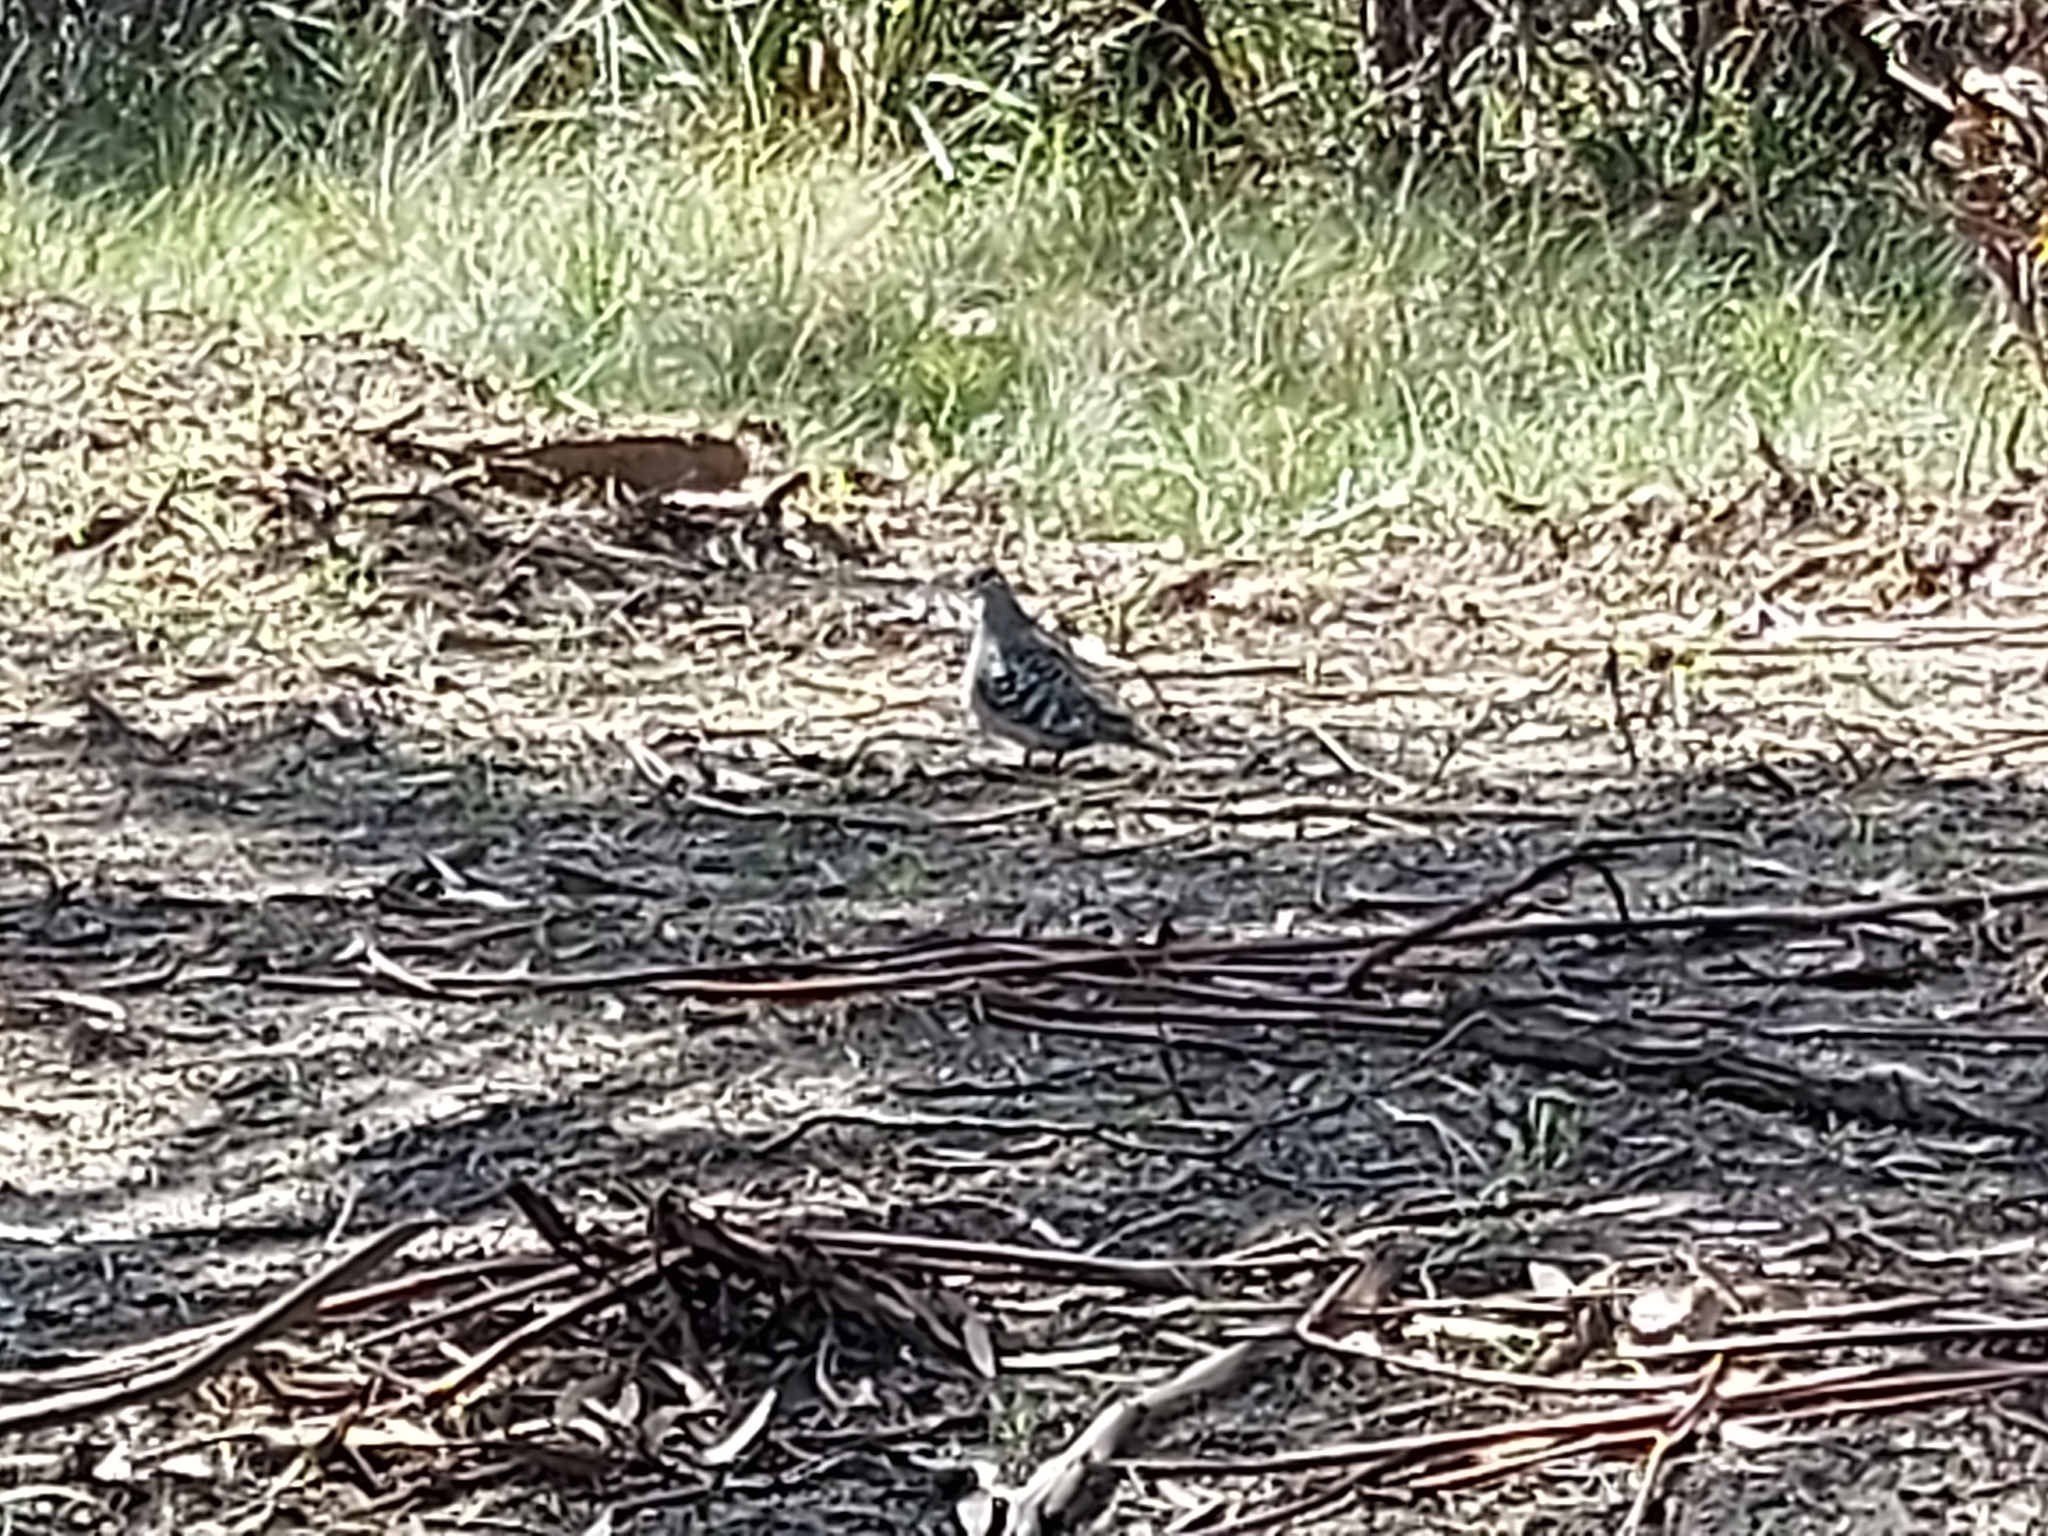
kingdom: Animalia
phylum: Chordata
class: Aves
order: Columbiformes
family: Columbidae
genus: Phaps
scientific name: Phaps chalcoptera
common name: Common bronzewing
